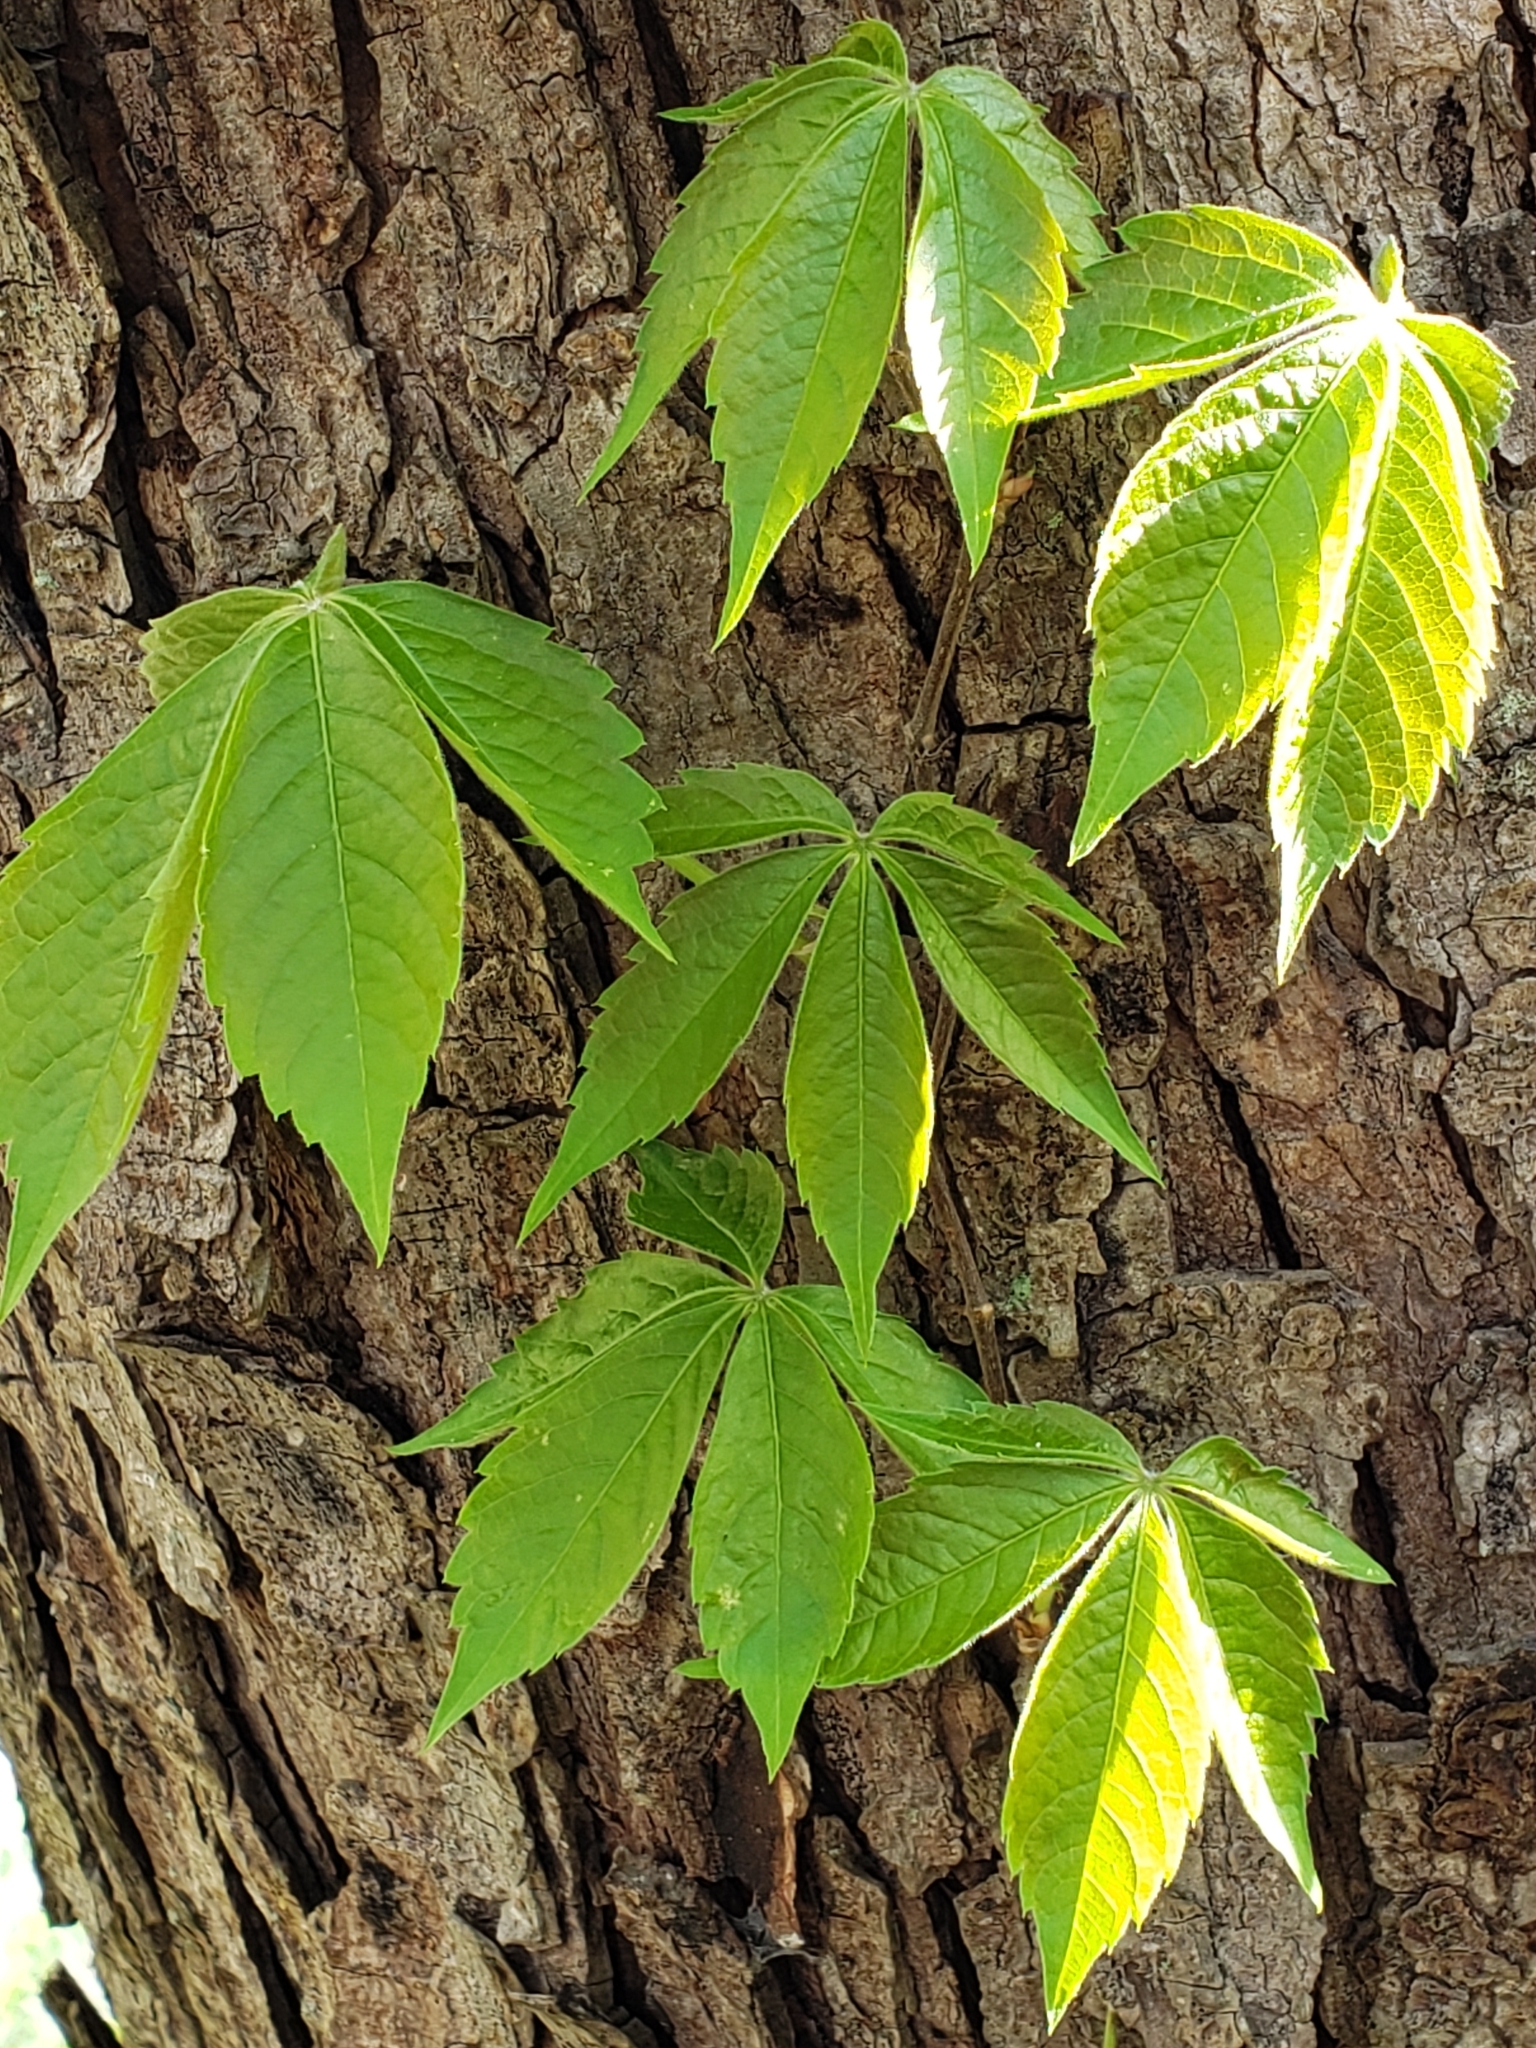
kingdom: Plantae
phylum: Tracheophyta
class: Magnoliopsida
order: Vitales
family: Vitaceae
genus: Parthenocissus
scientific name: Parthenocissus quinquefolia
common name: Virginia-creeper
